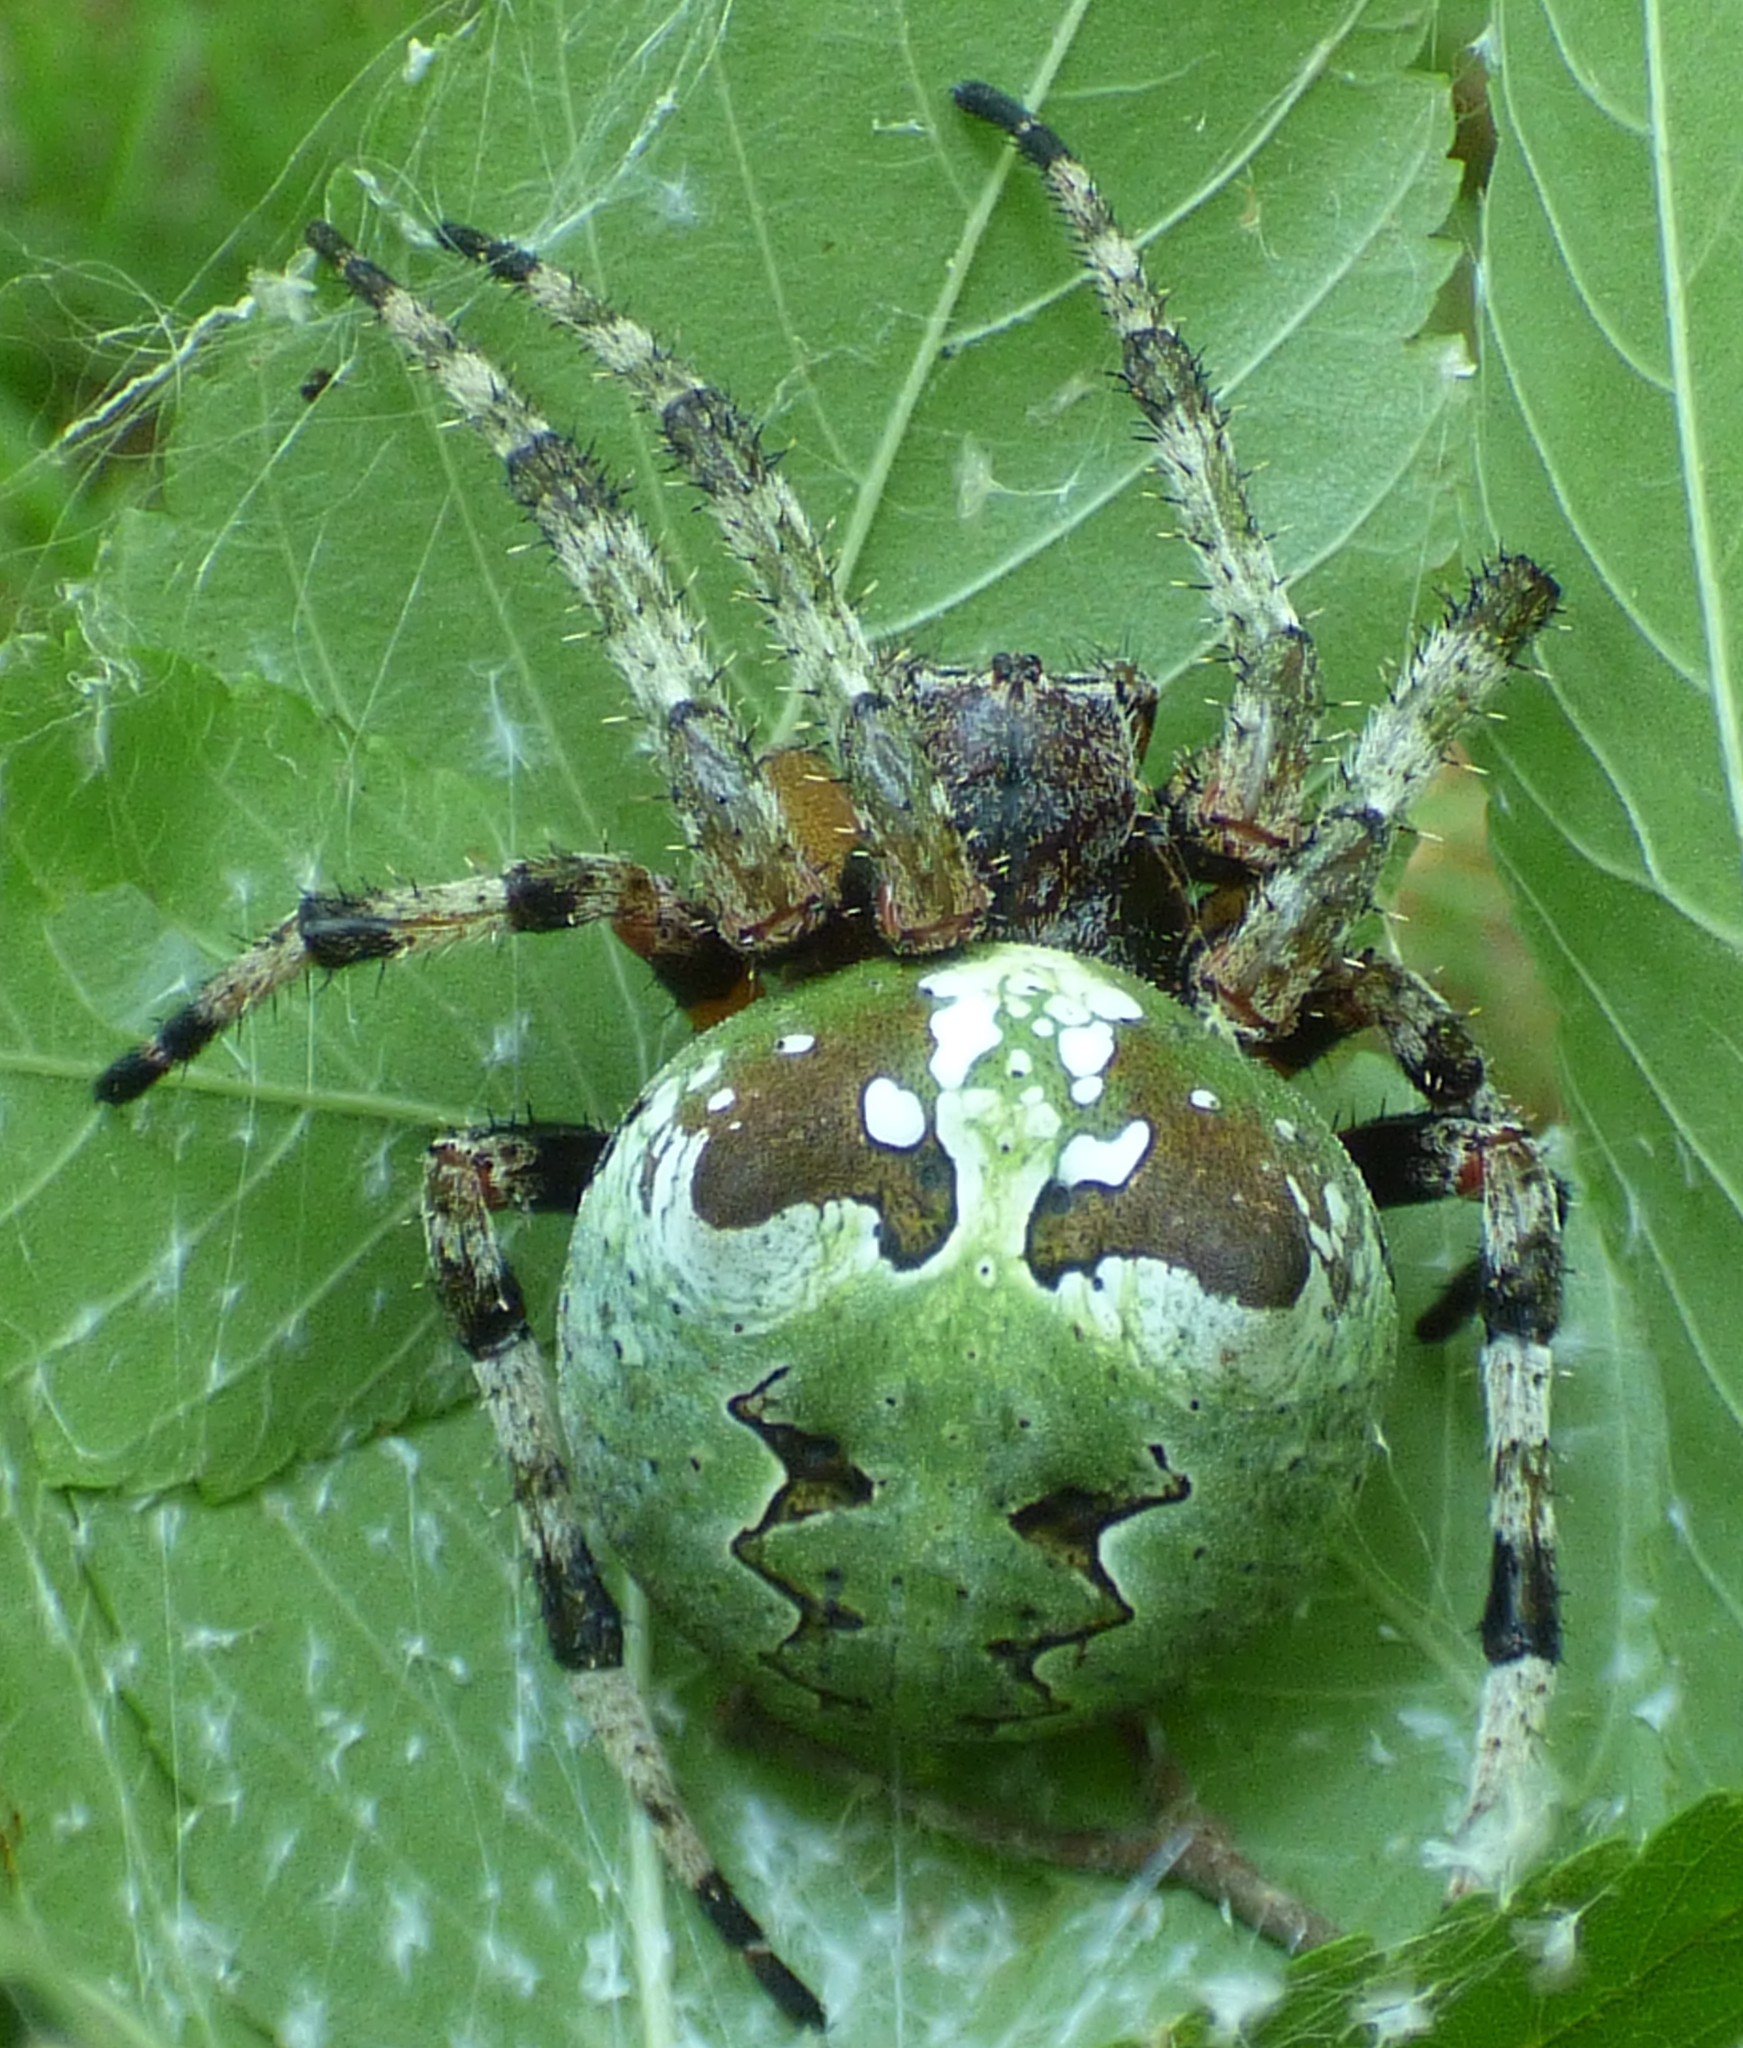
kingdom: Animalia
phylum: Arthropoda
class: Arachnida
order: Araneae
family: Araneidae
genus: Araneus
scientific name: Araneus bicentenarius
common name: Giant lichen orbweaver
